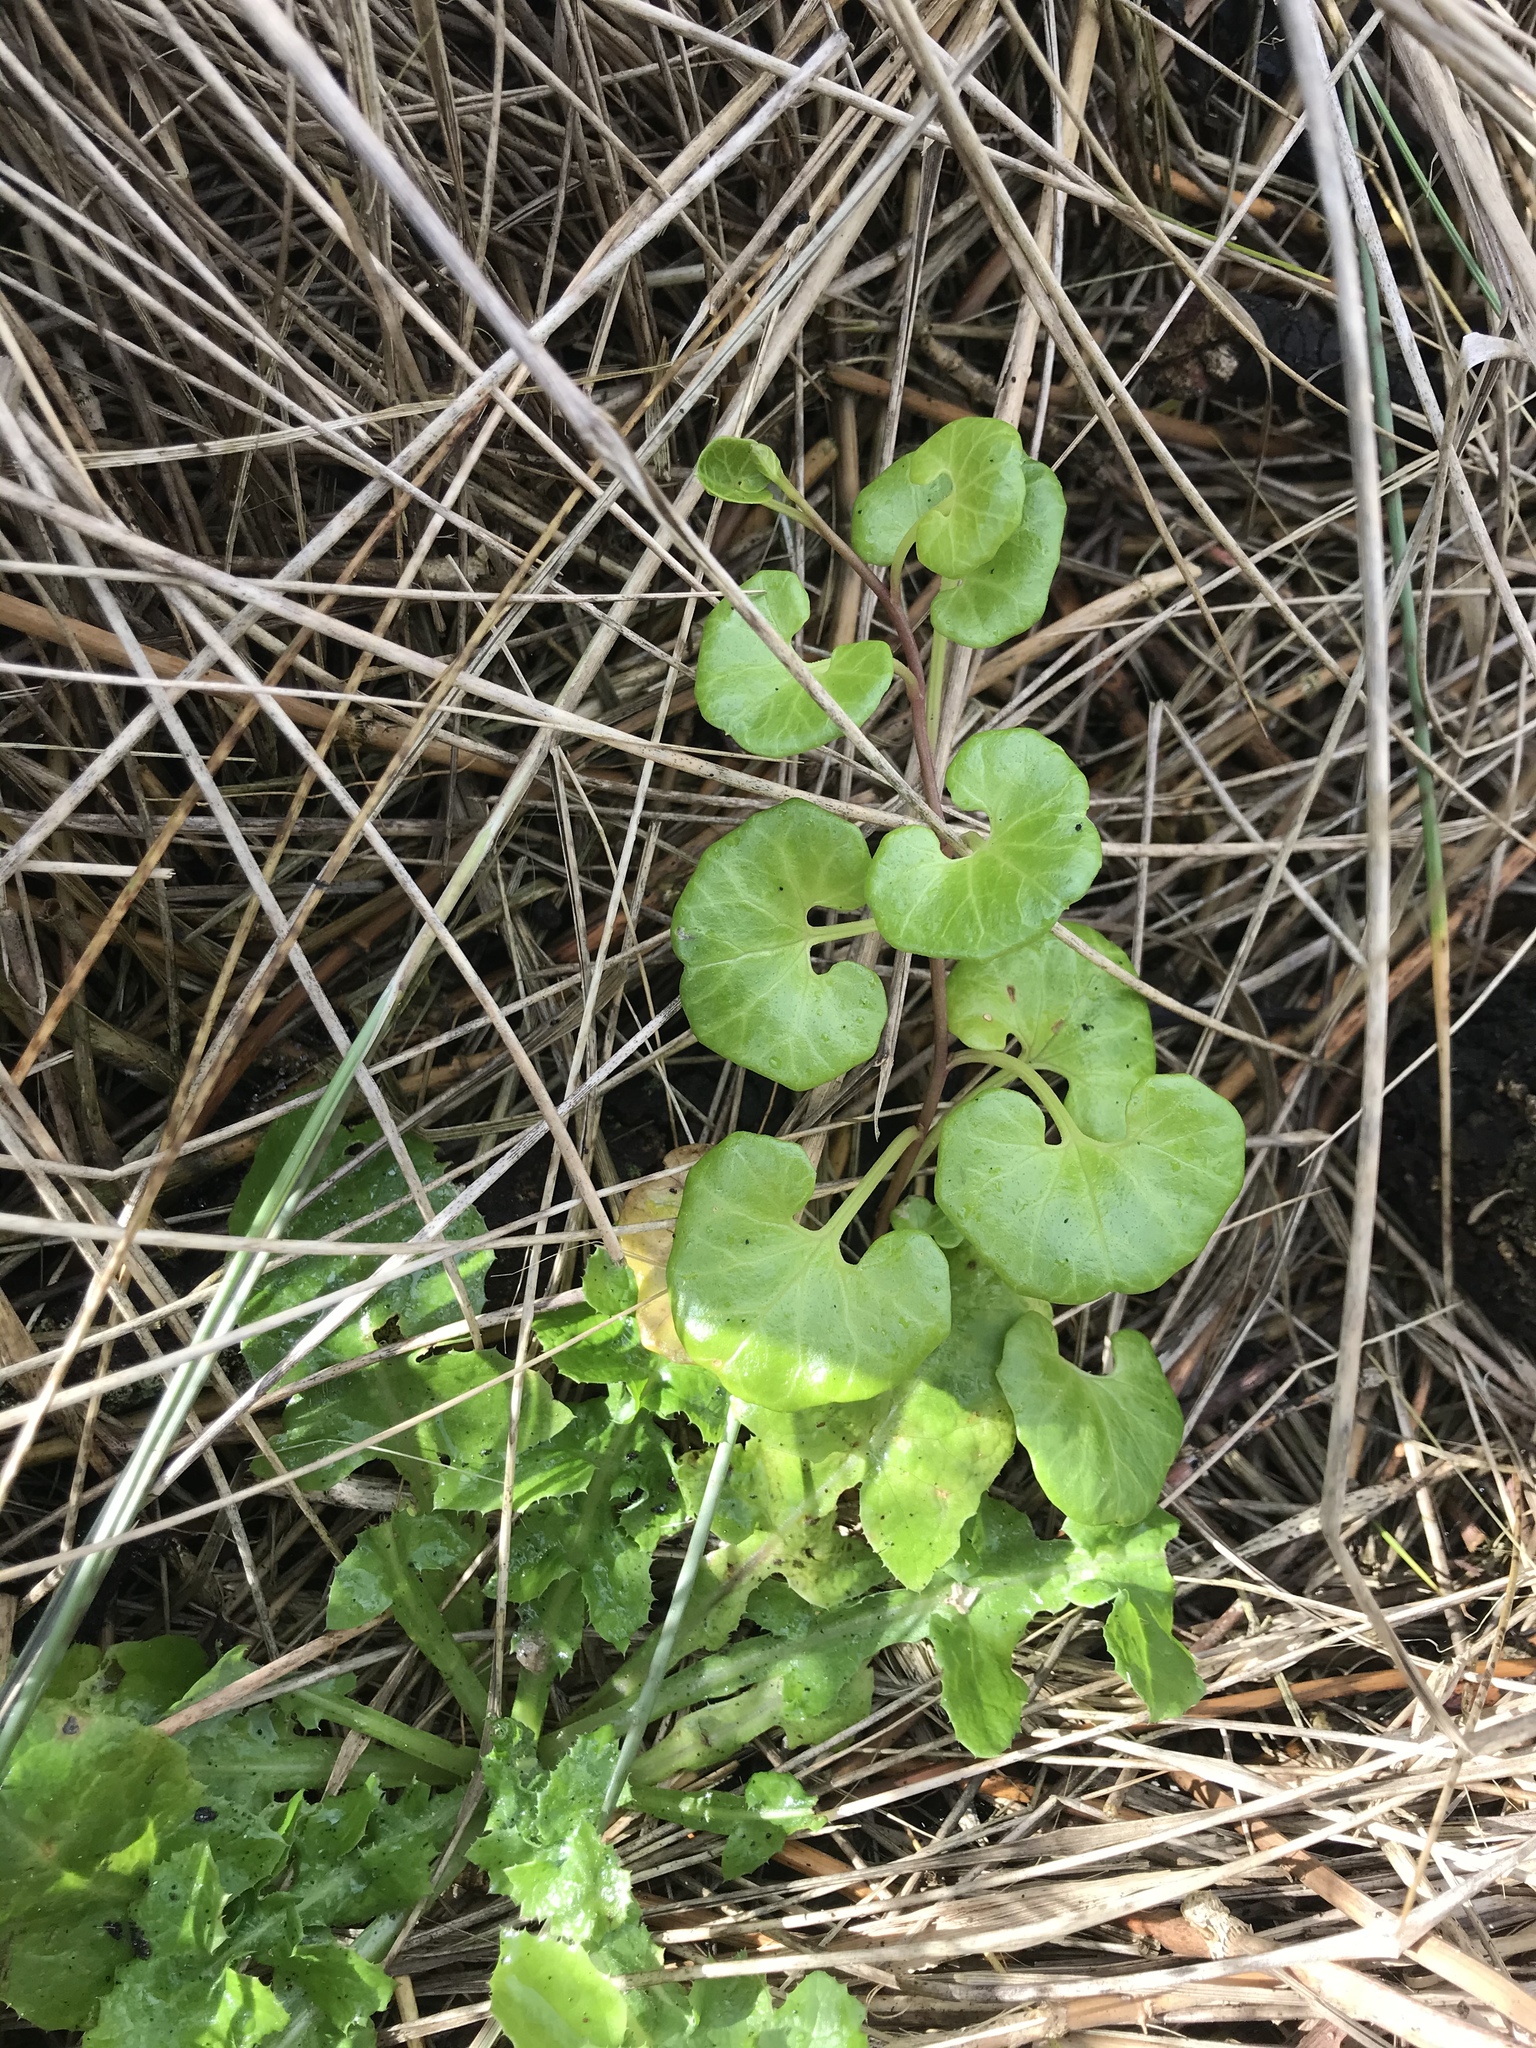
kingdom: Plantae
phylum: Tracheophyta
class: Magnoliopsida
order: Solanales
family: Convolvulaceae
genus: Calystegia
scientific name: Calystegia soldanella
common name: Sea bindweed
